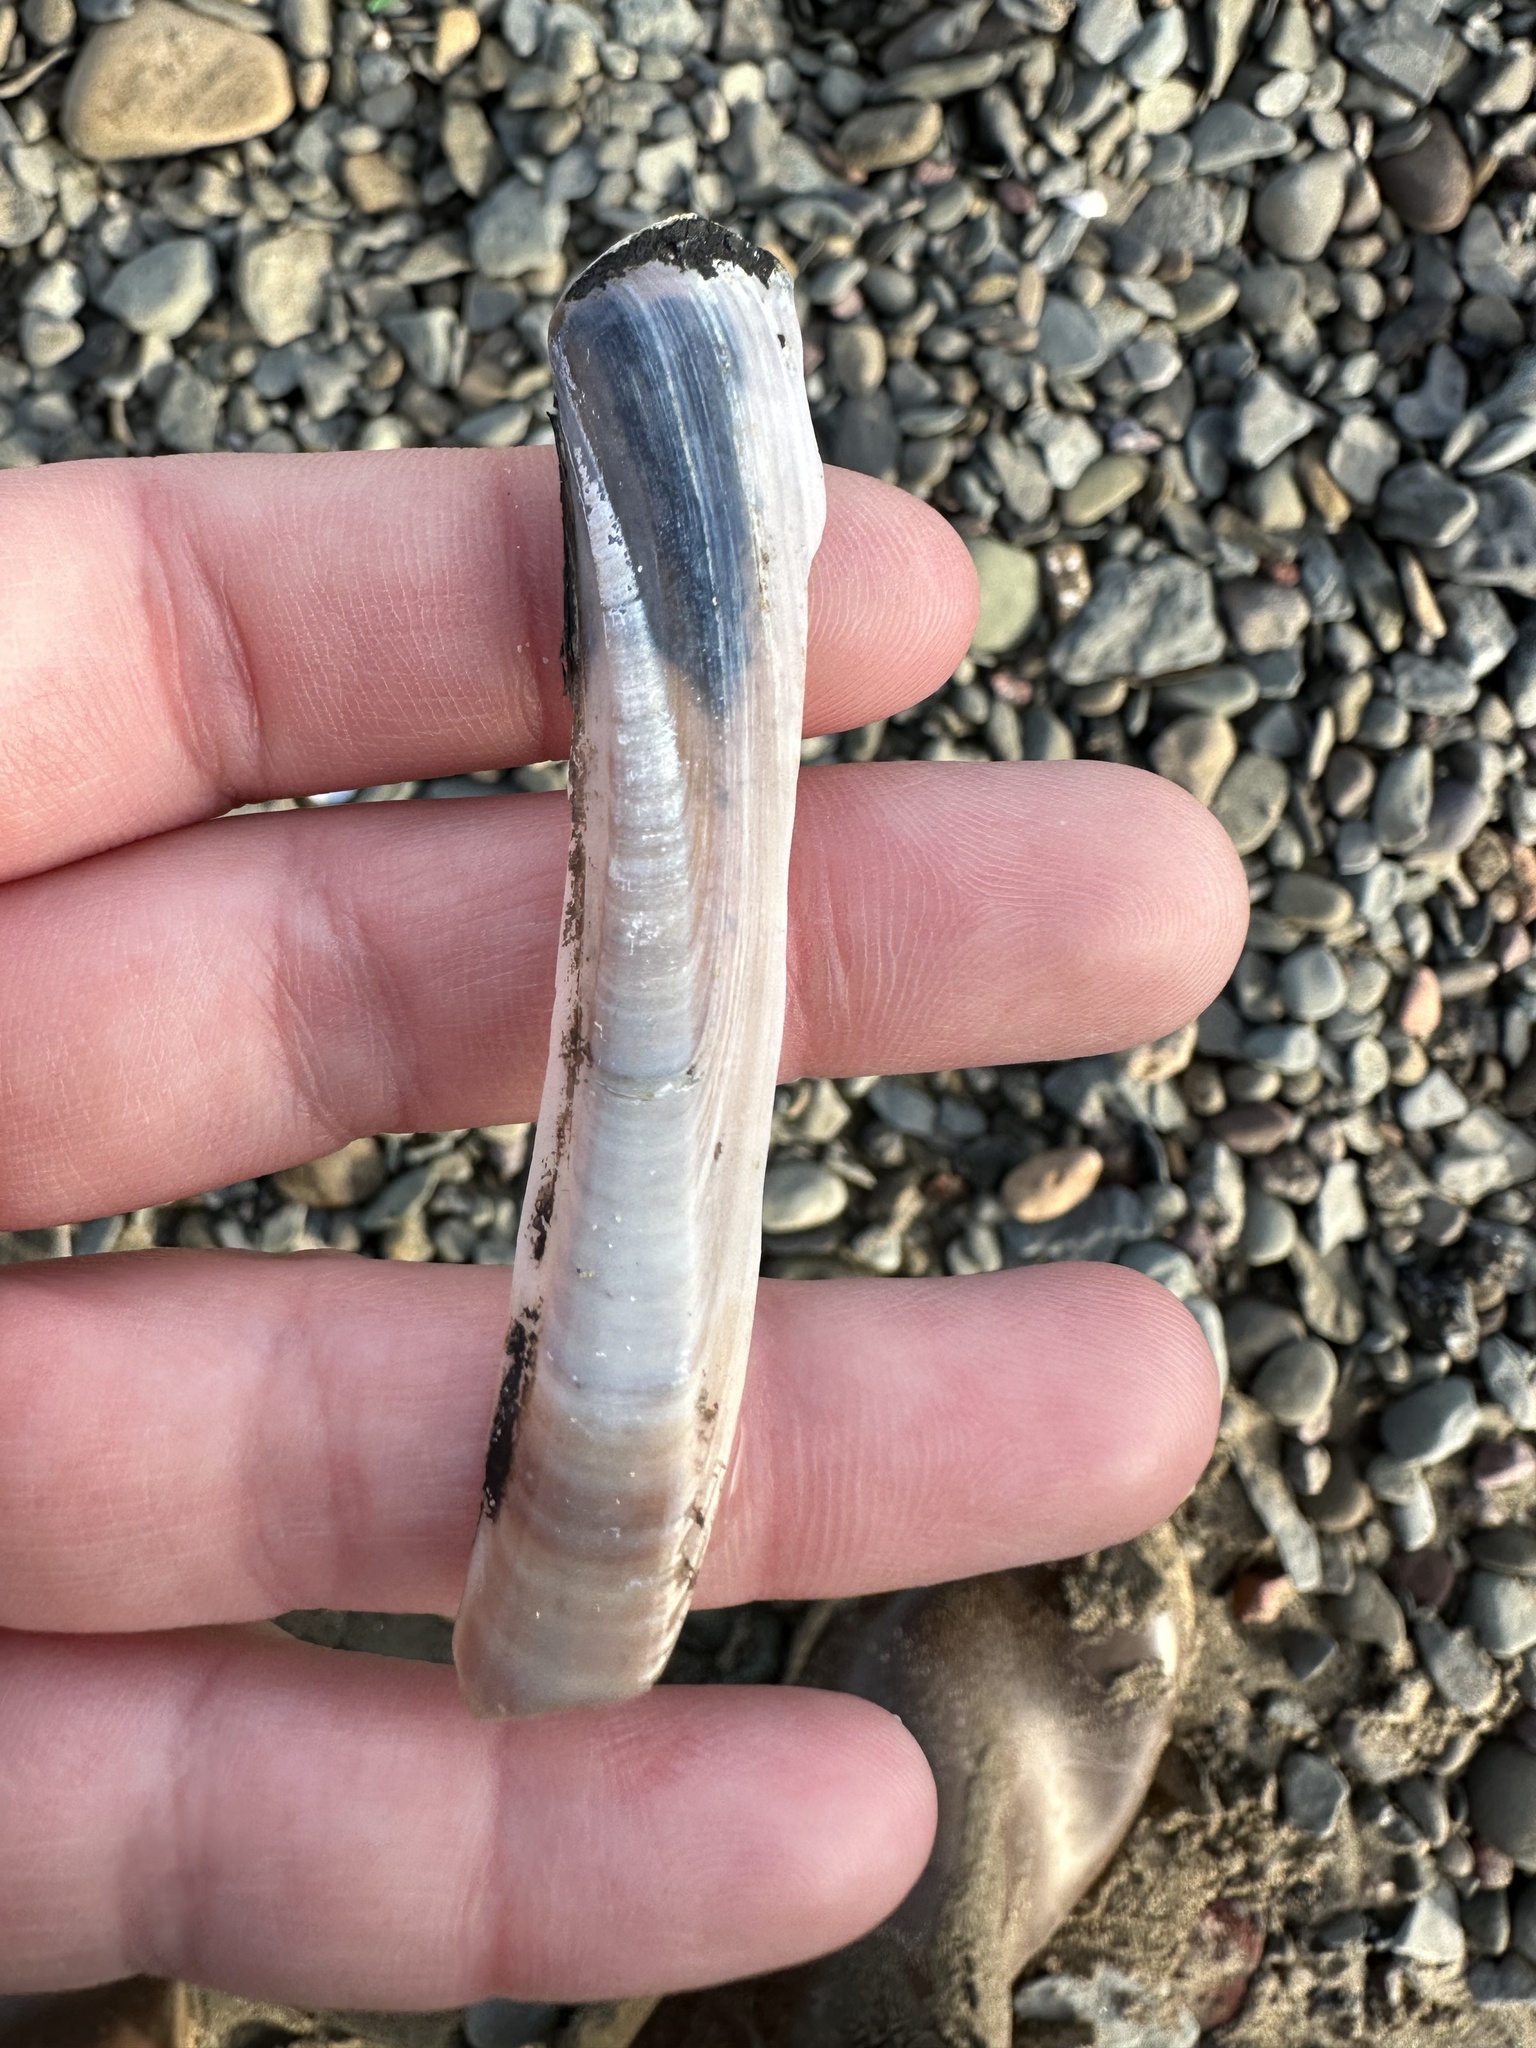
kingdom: Animalia
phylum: Mollusca
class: Bivalvia
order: Adapedonta
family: Pharidae
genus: Ensis
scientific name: Ensis leei
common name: American jack knife clam
